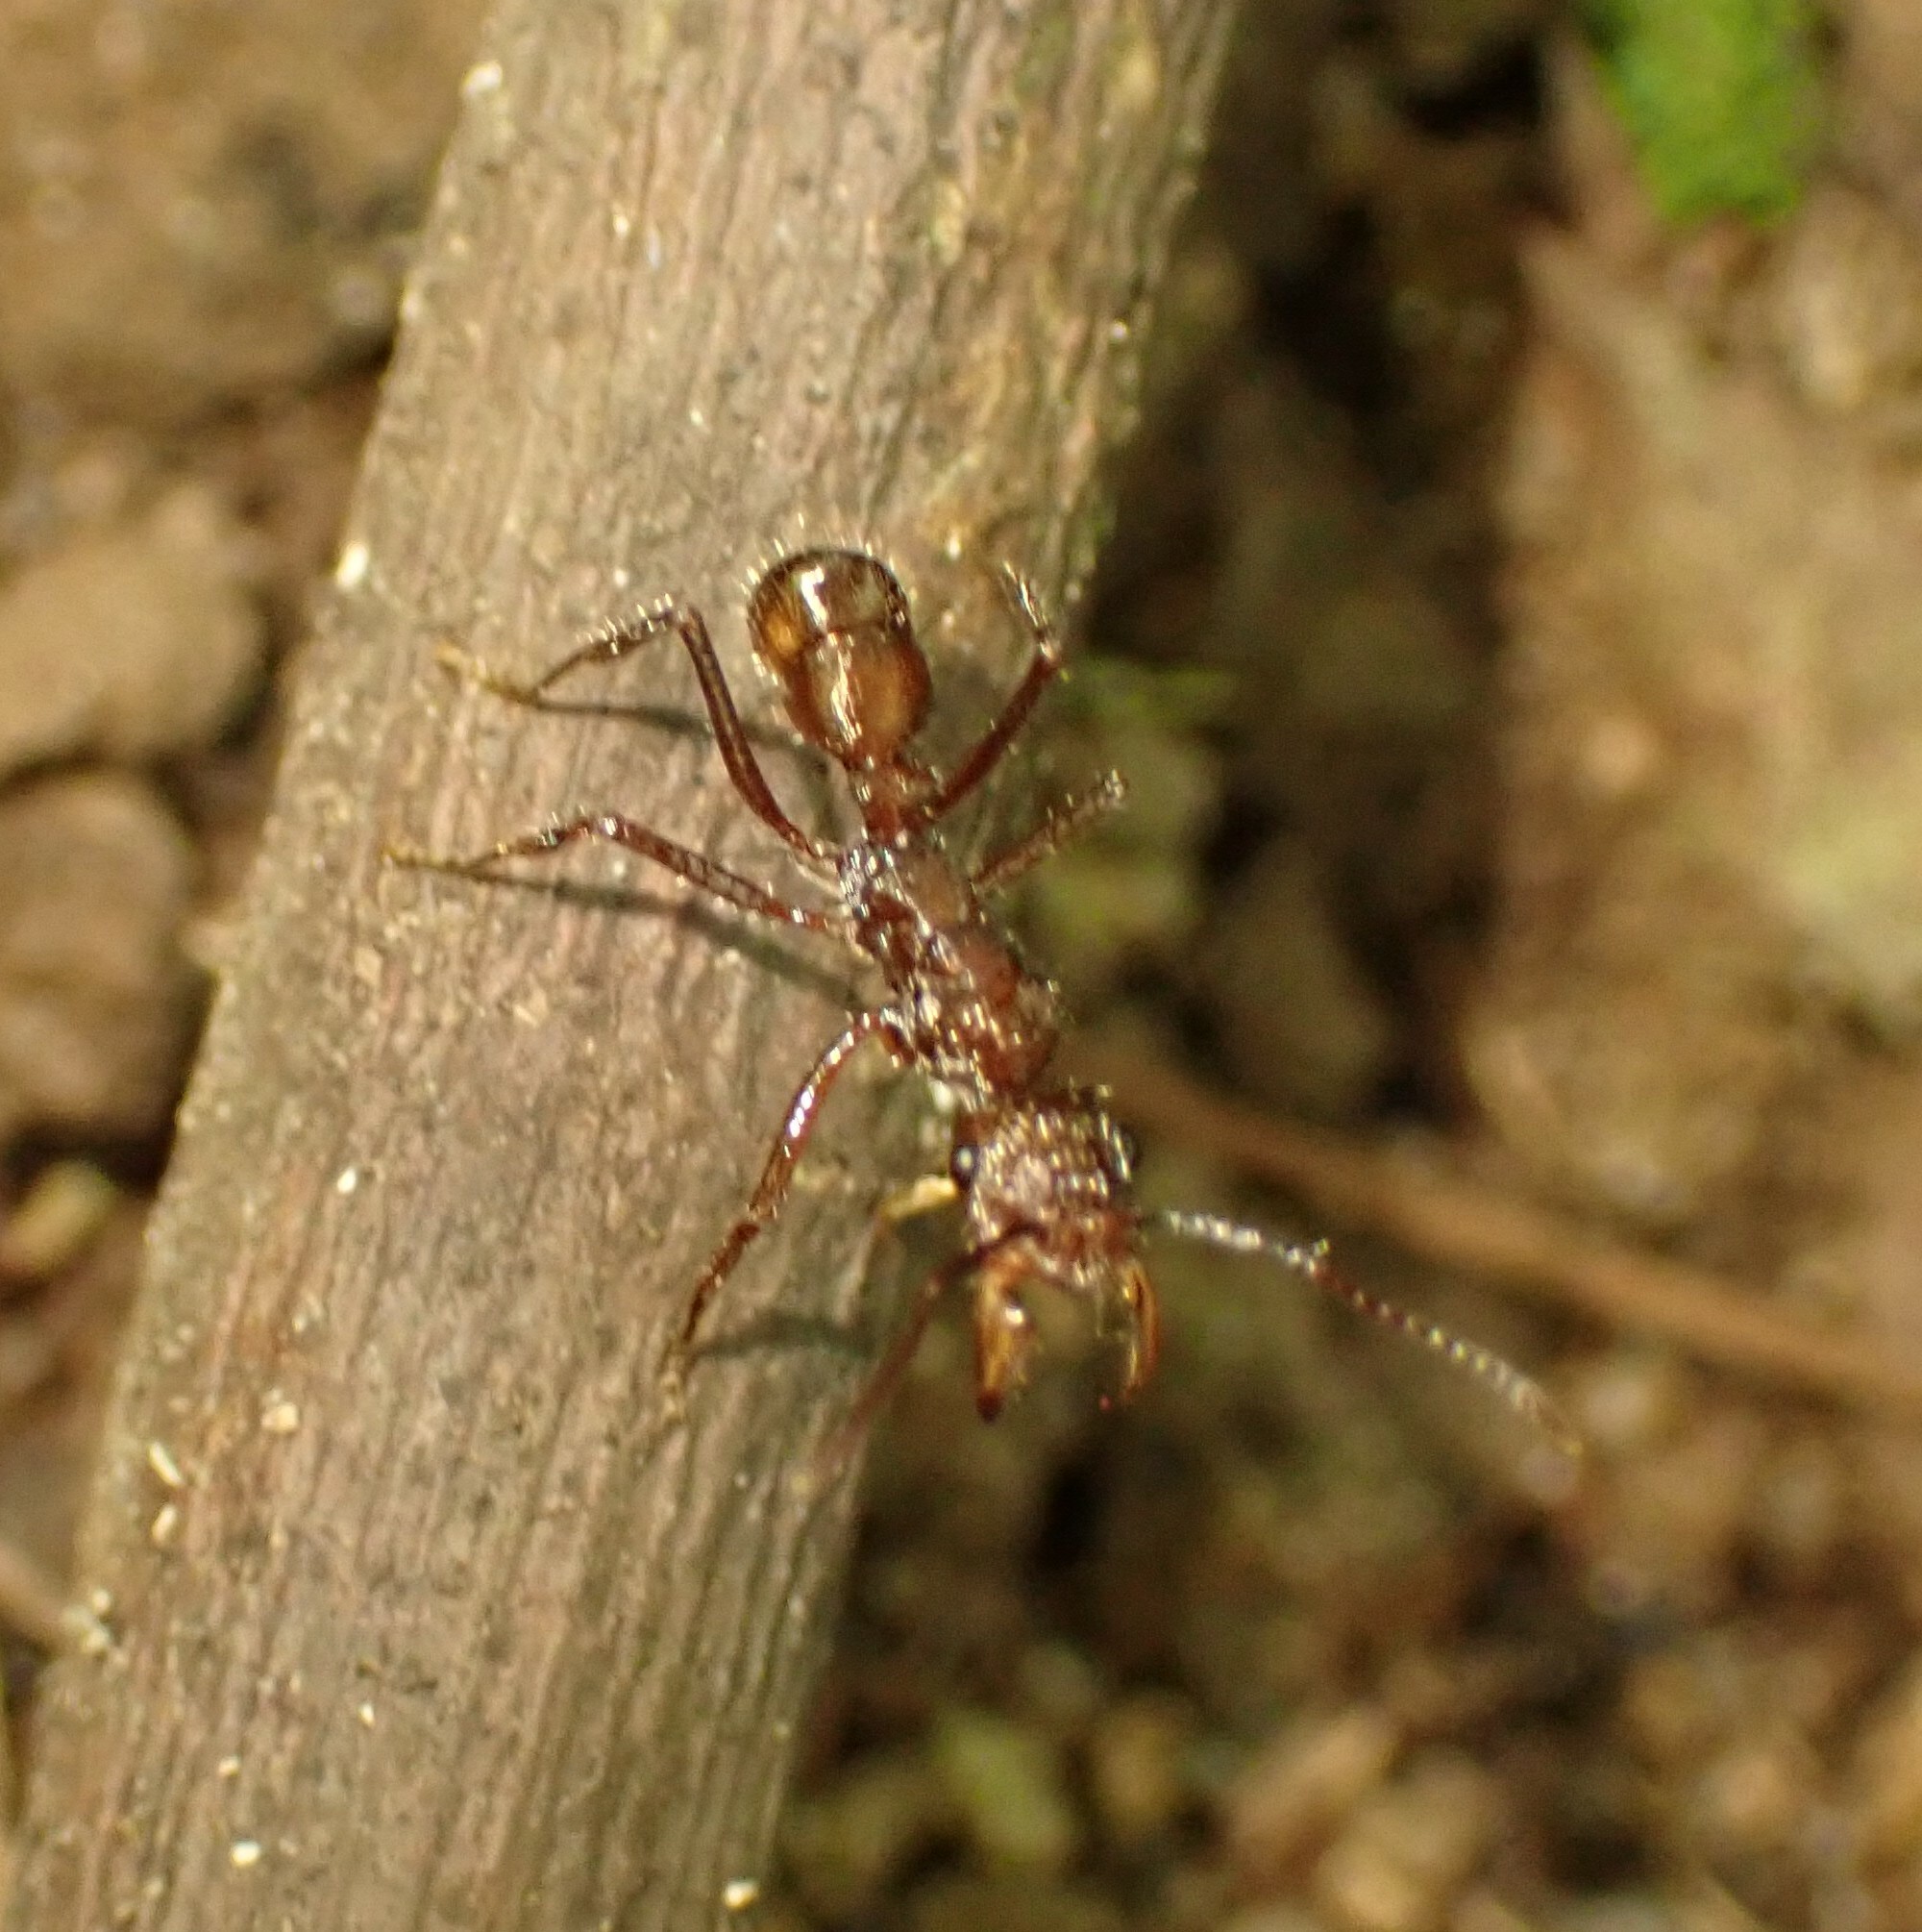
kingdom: Animalia
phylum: Arthropoda
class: Insecta
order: Hymenoptera
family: Formicidae
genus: Ectatomma
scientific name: Ectatomma tuberculatum
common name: Ant
